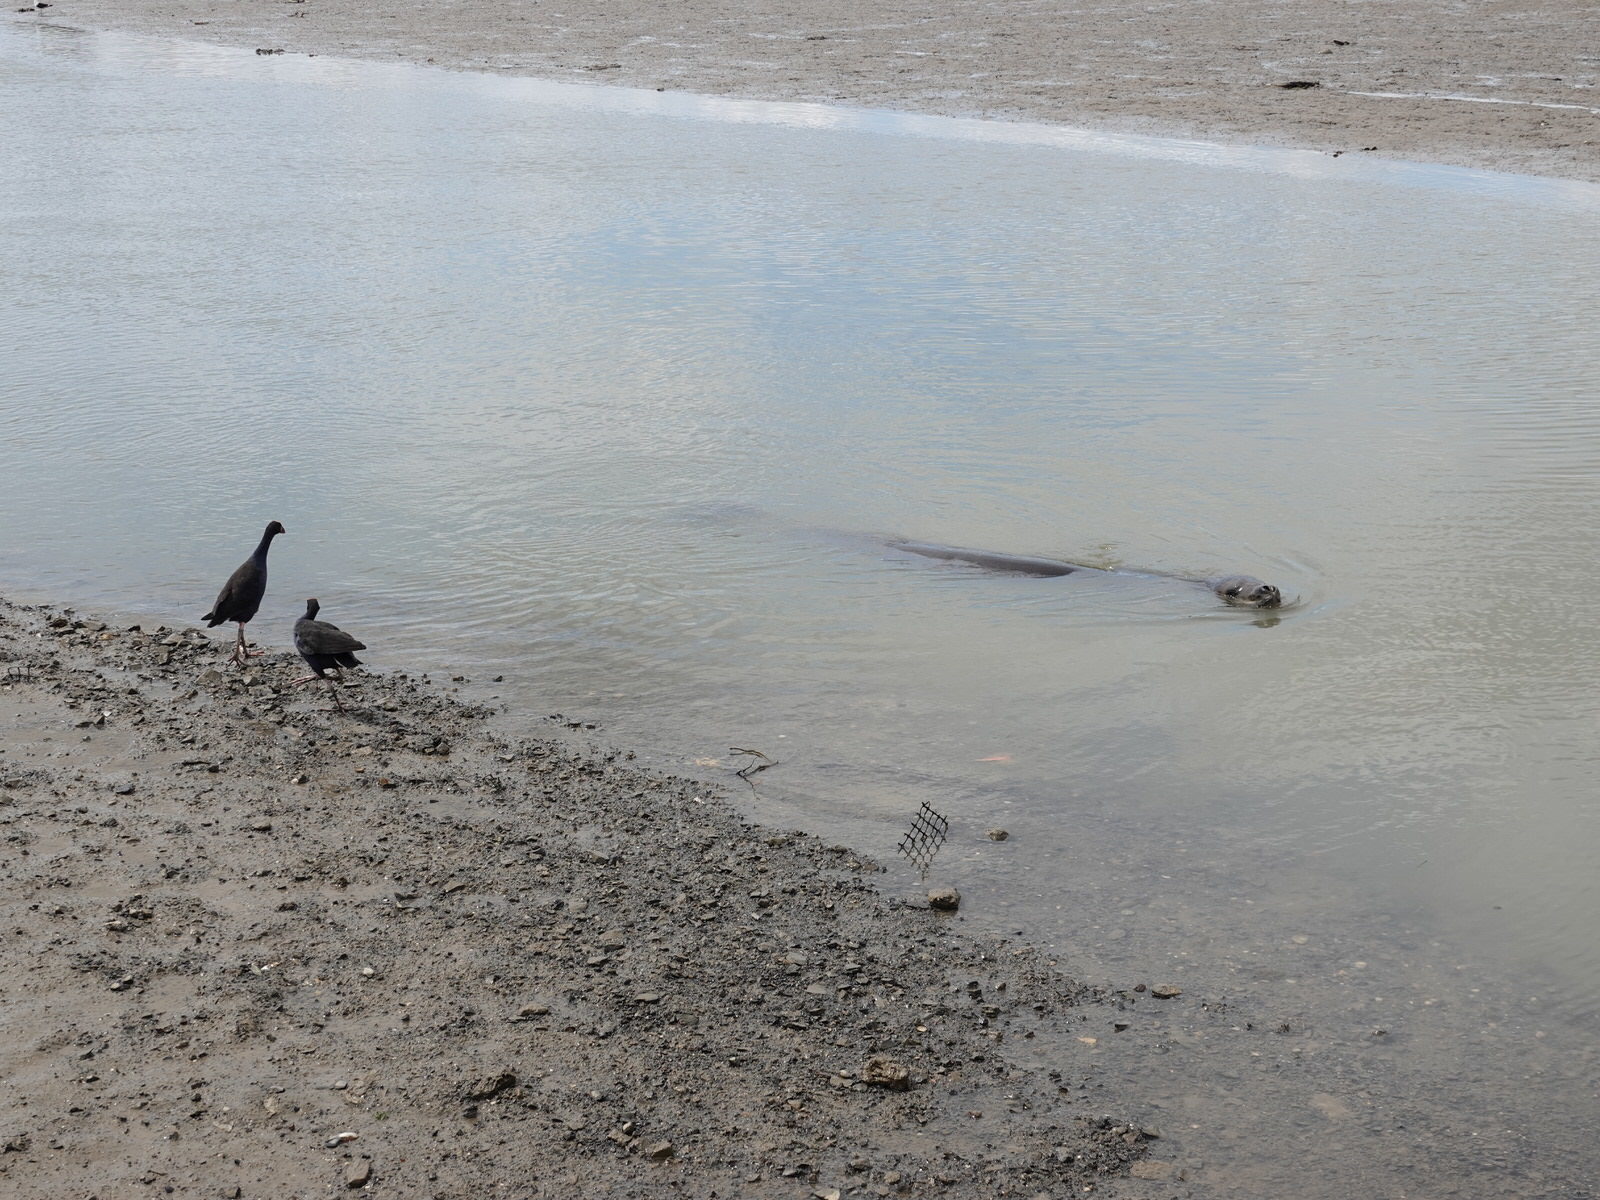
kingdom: Animalia
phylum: Chordata
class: Mammalia
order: Carnivora
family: Phocidae
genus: Hydrurga
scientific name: Hydrurga leptonyx
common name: Leopard seal
